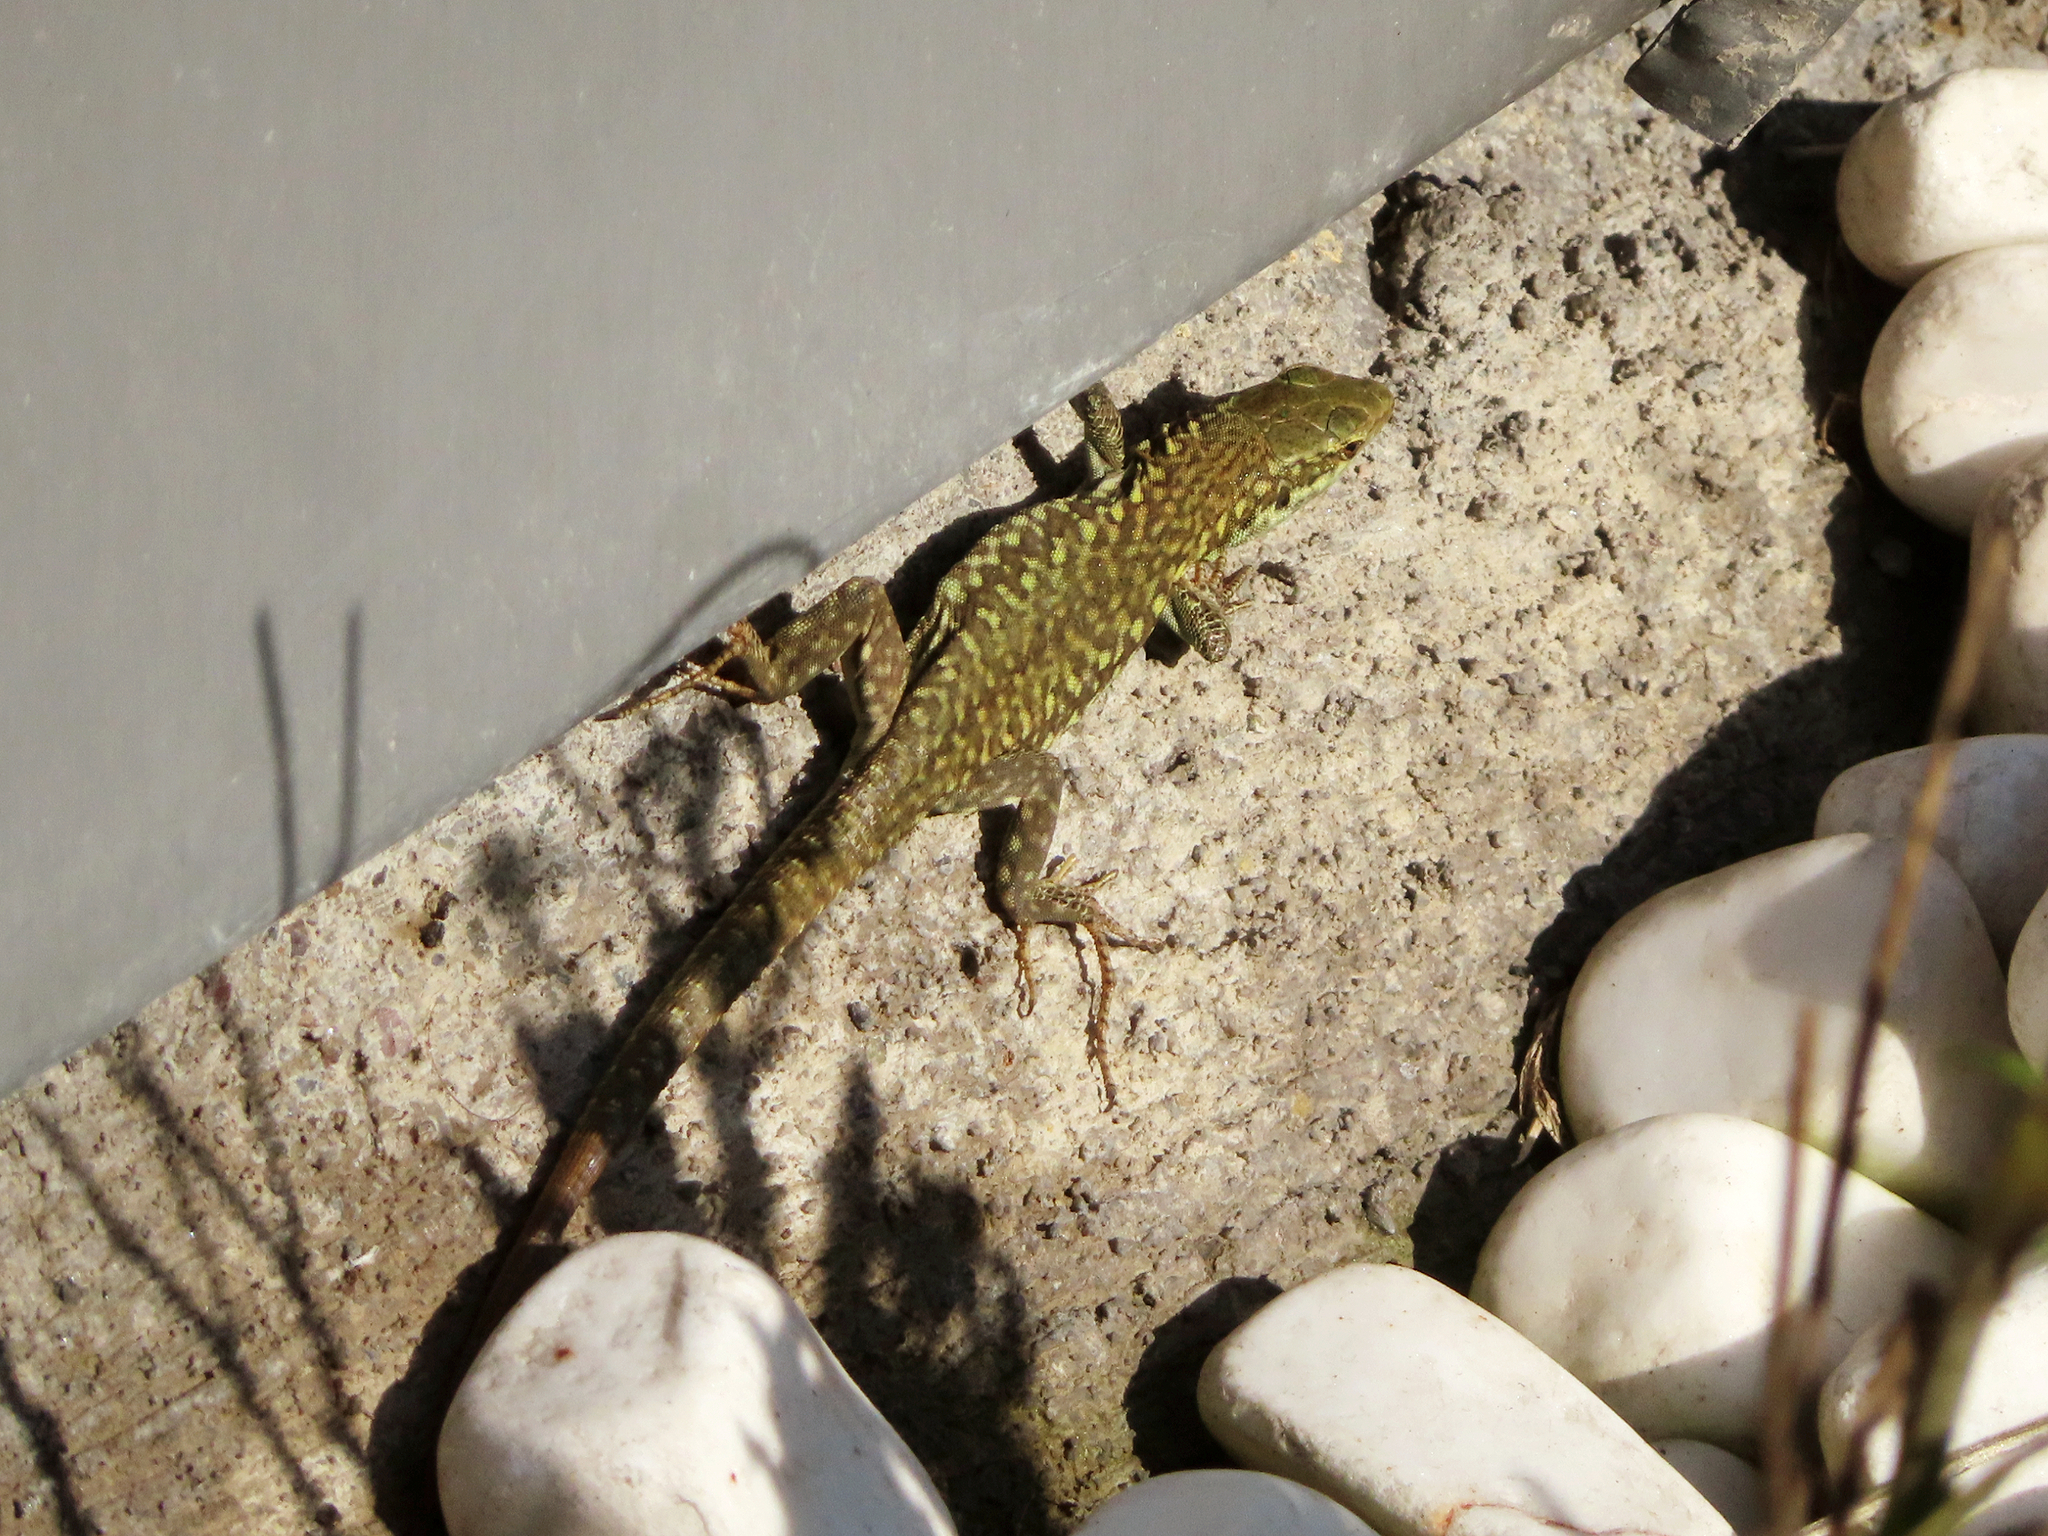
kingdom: Animalia
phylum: Chordata
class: Squamata
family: Lacertidae
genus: Podarcis
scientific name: Podarcis siculus
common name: Italian wall lizard
